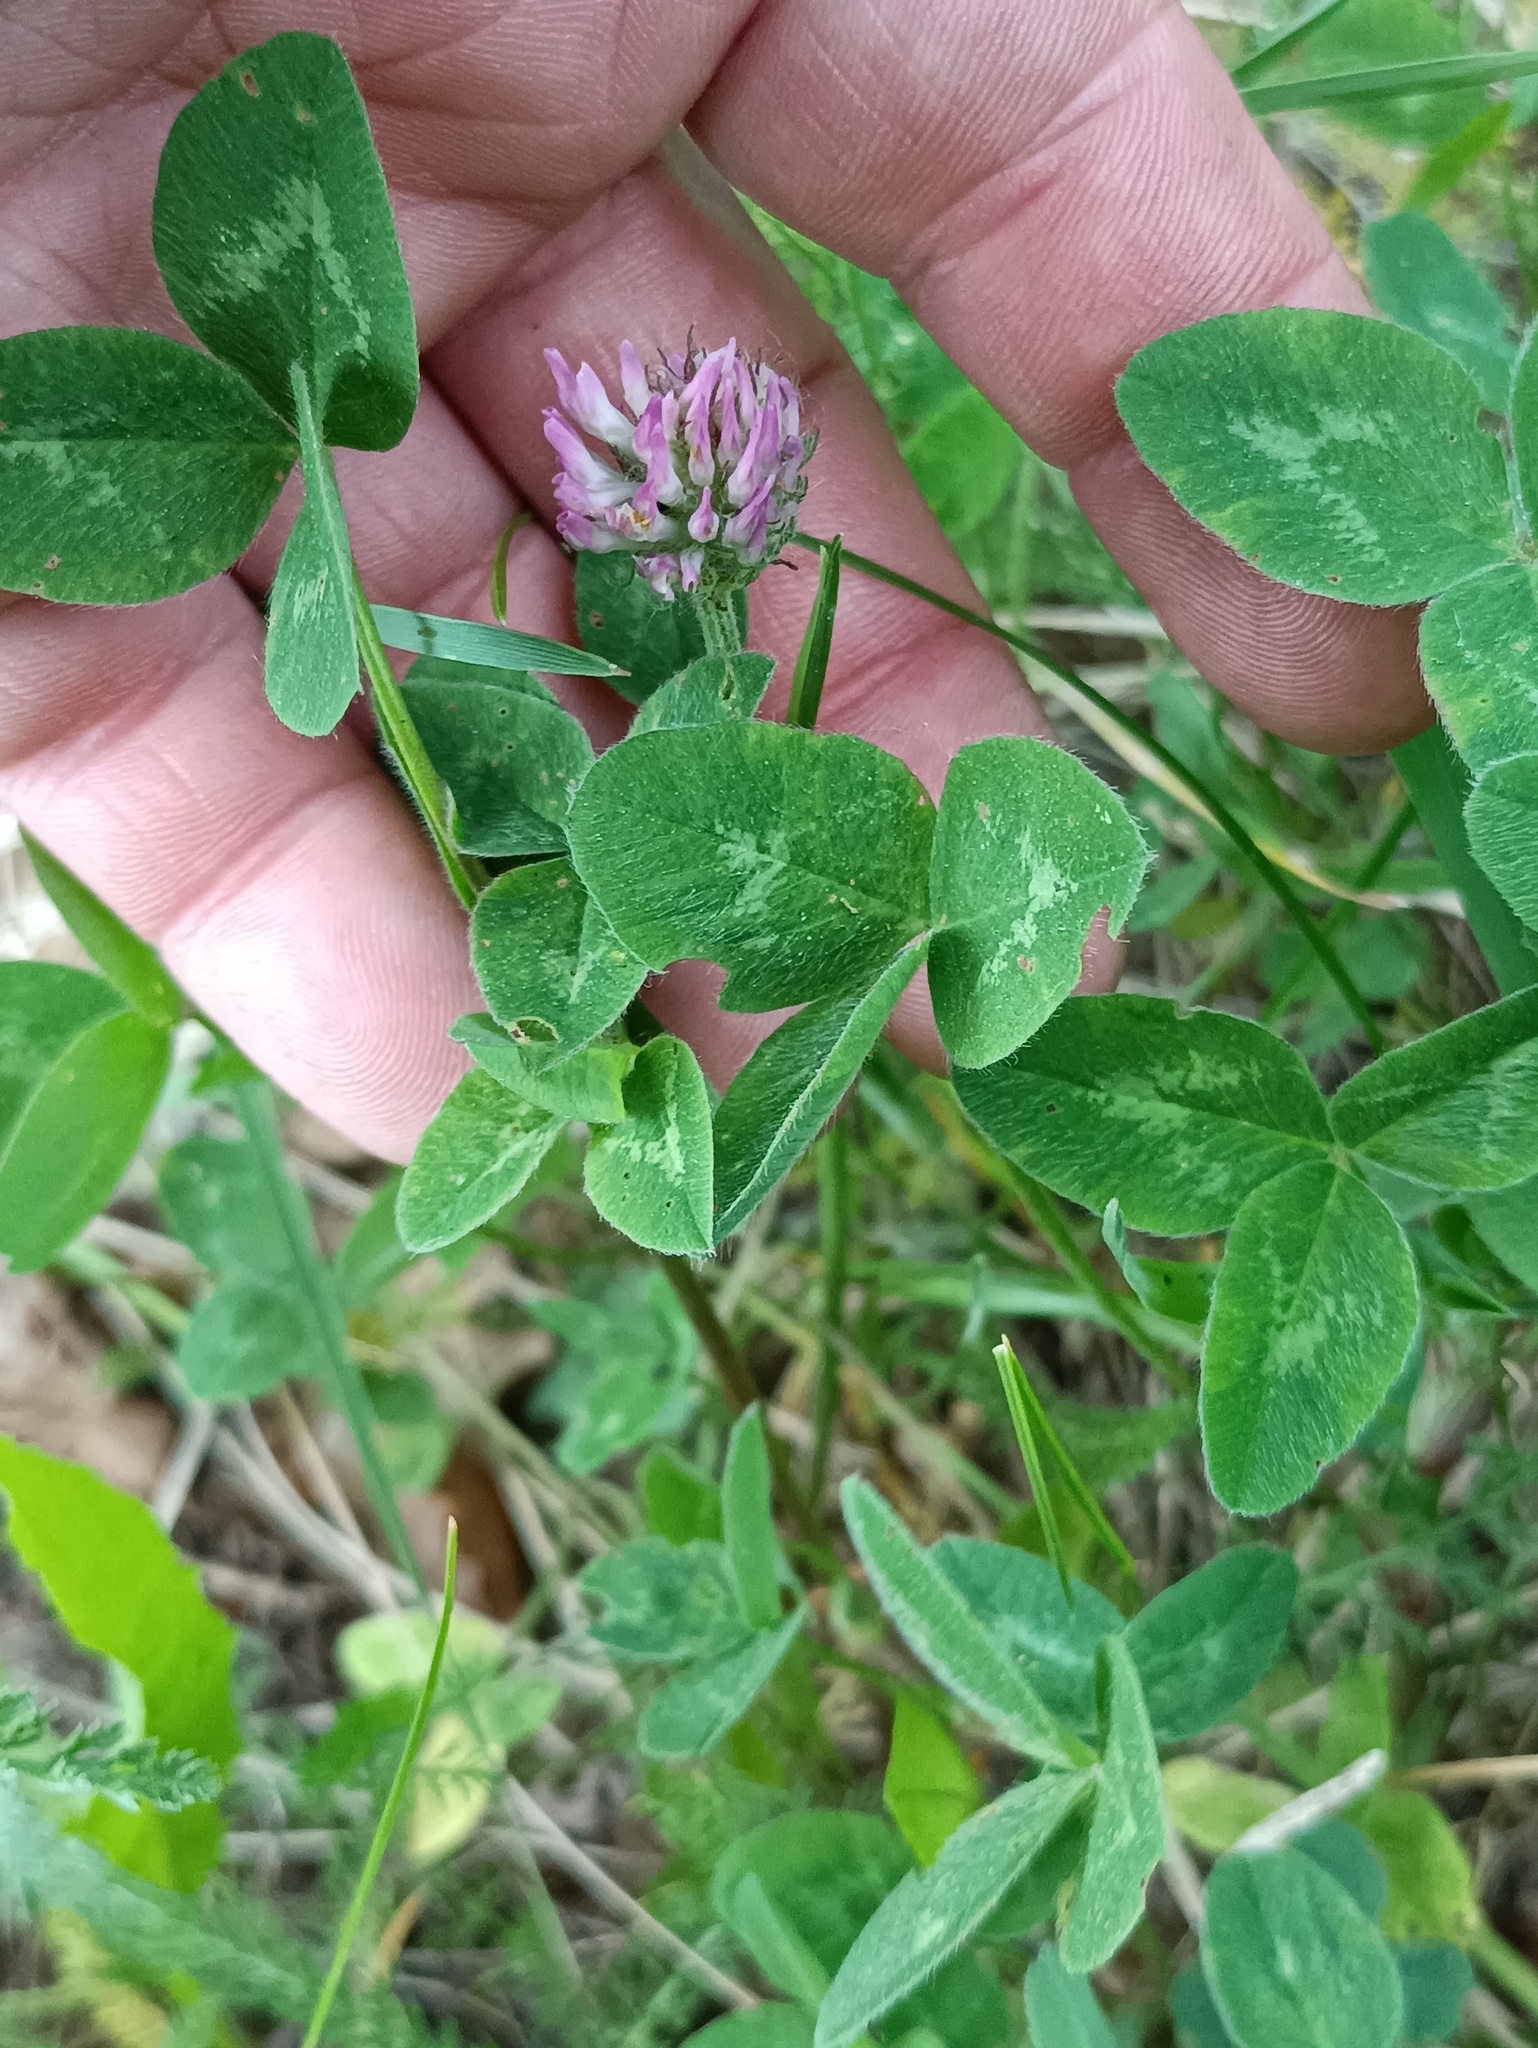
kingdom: Plantae
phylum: Tracheophyta
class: Magnoliopsida
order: Fabales
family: Fabaceae
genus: Trifolium
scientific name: Trifolium pratense
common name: Red clover
